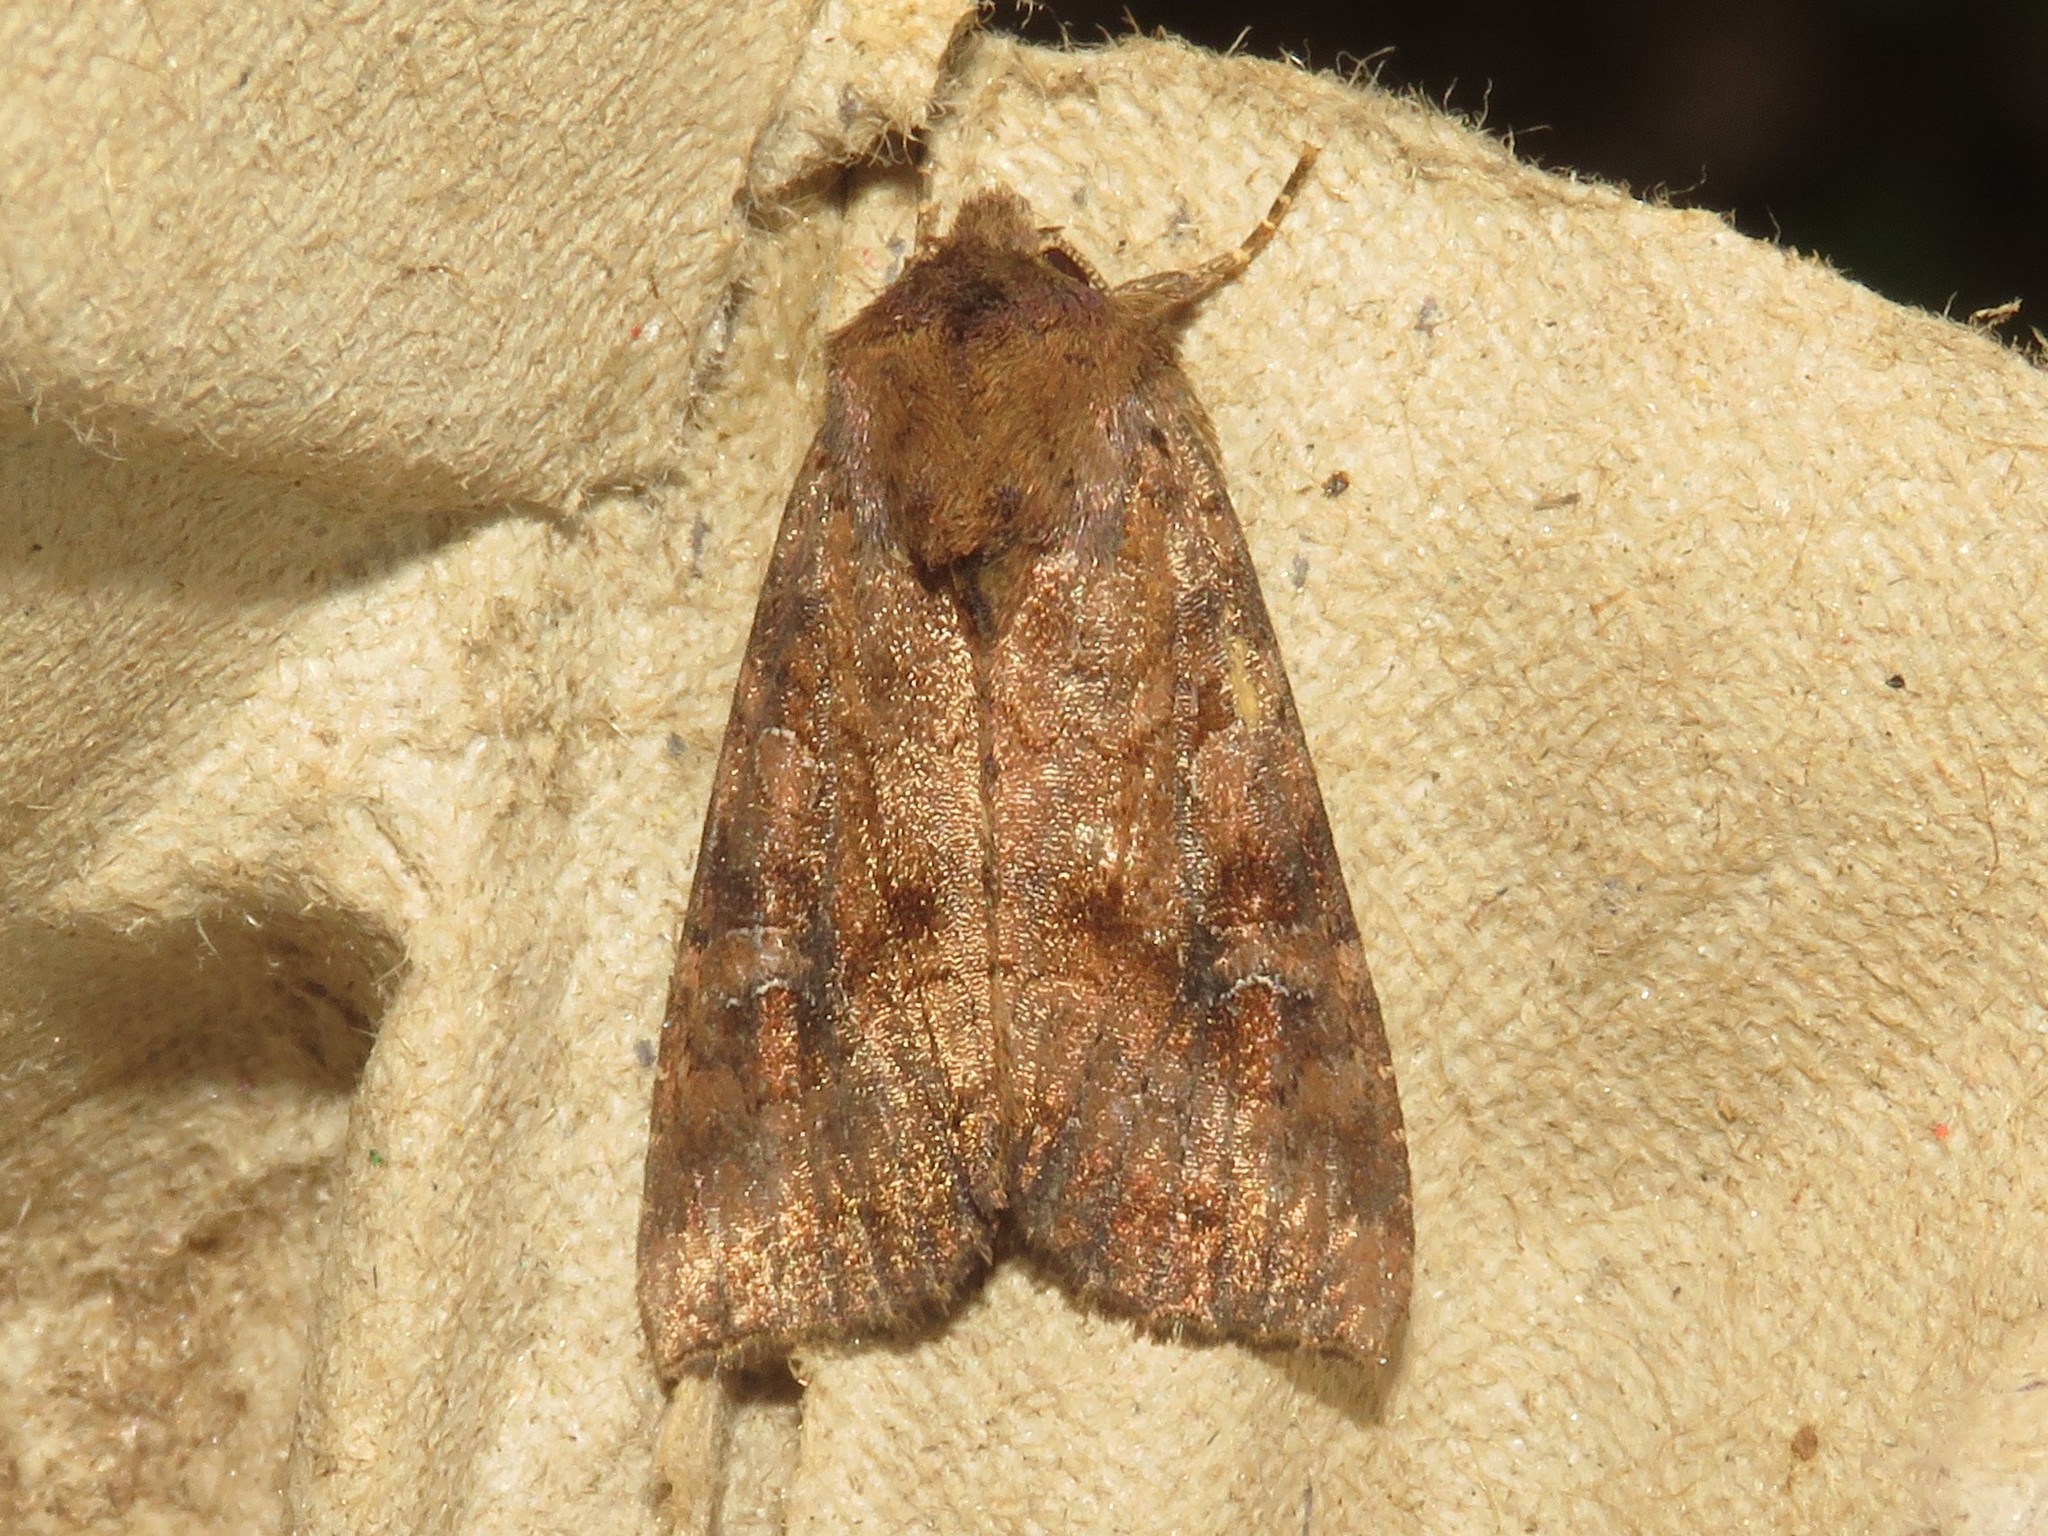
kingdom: Animalia
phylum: Arthropoda
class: Insecta
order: Lepidoptera
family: Noctuidae
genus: Loscopia
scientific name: Loscopia velata
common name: Veiled ear moth
